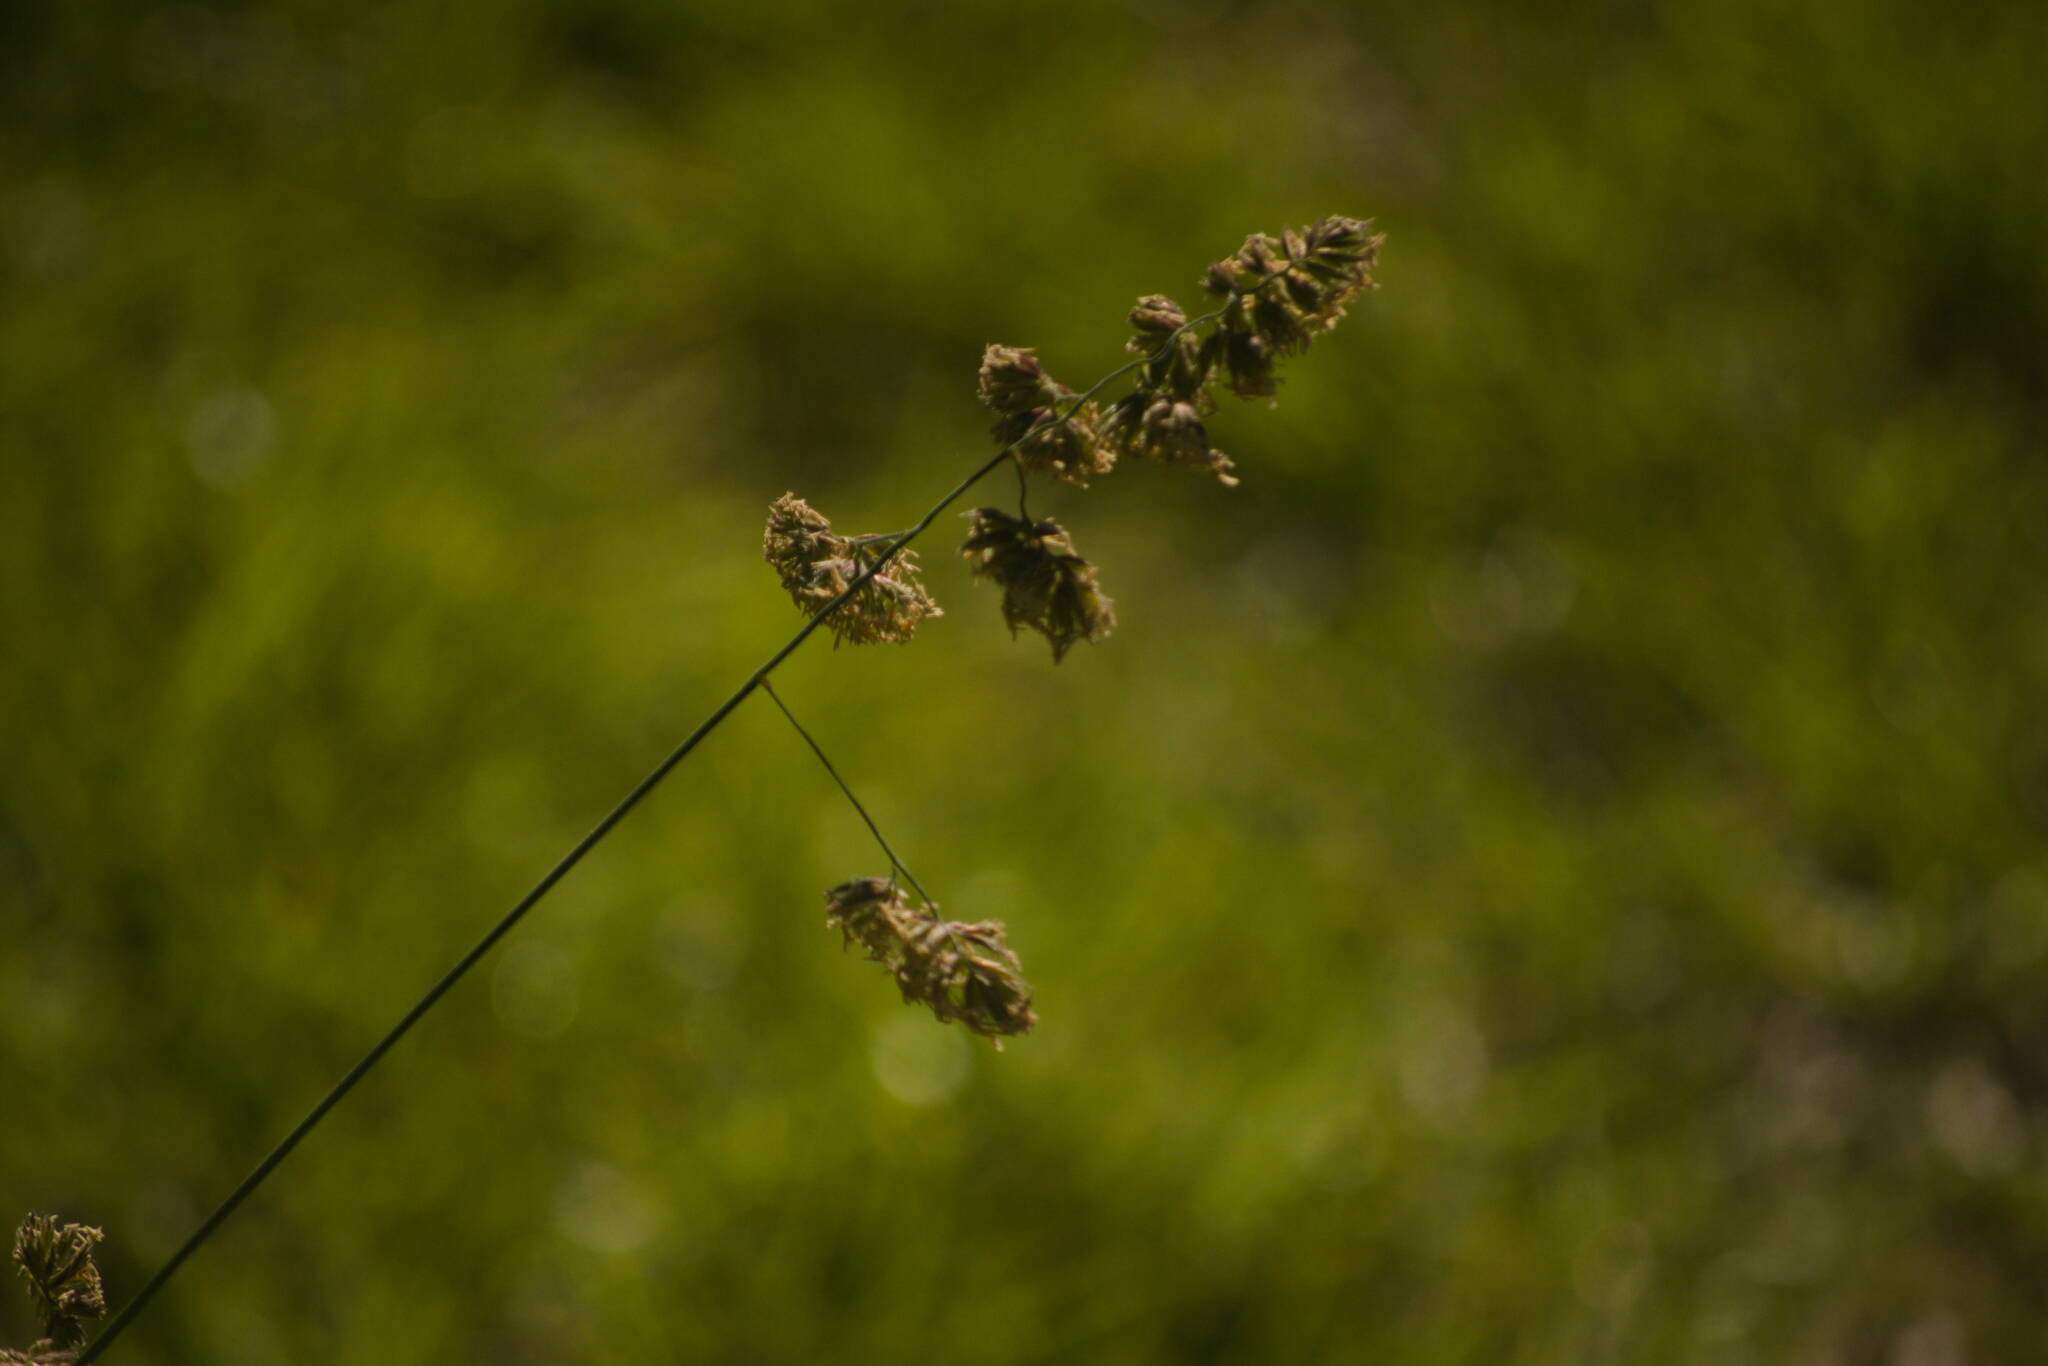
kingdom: Plantae
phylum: Tracheophyta
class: Liliopsida
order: Poales
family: Poaceae
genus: Dactylis
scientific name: Dactylis glomerata
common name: Orchardgrass
